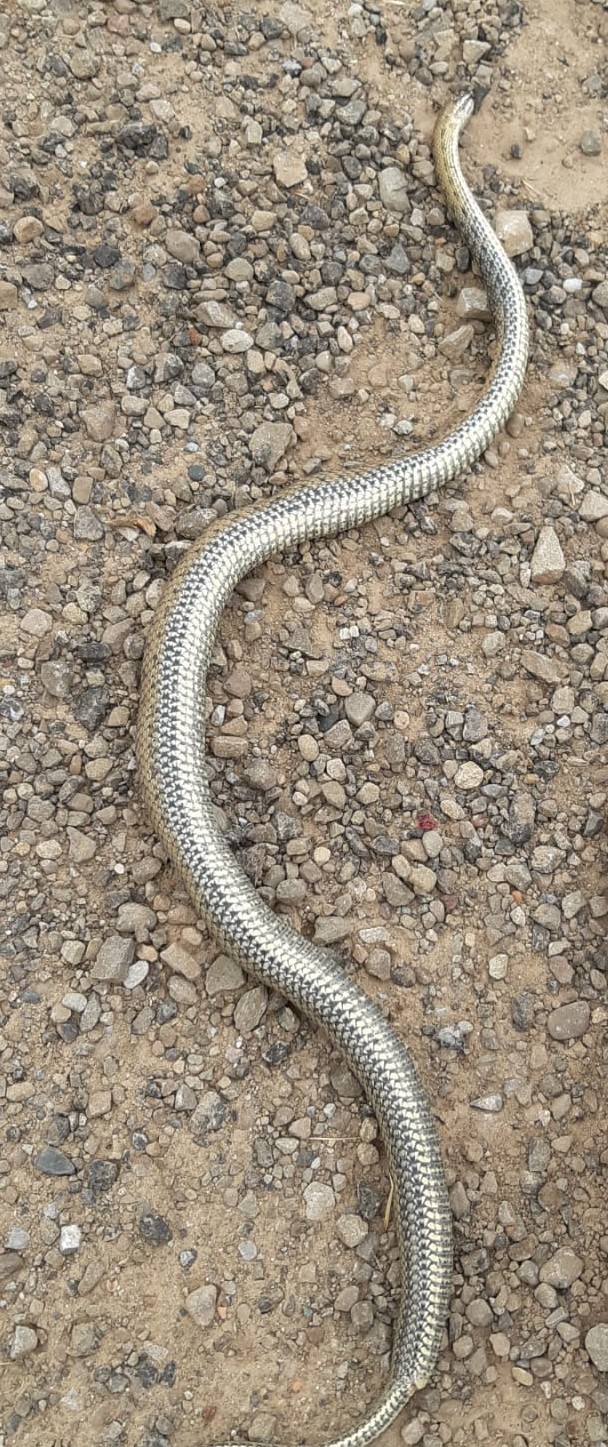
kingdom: Animalia
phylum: Chordata
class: Squamata
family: Psammophiidae
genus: Malpolon
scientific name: Malpolon monspessulanus
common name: Montpellier snake
